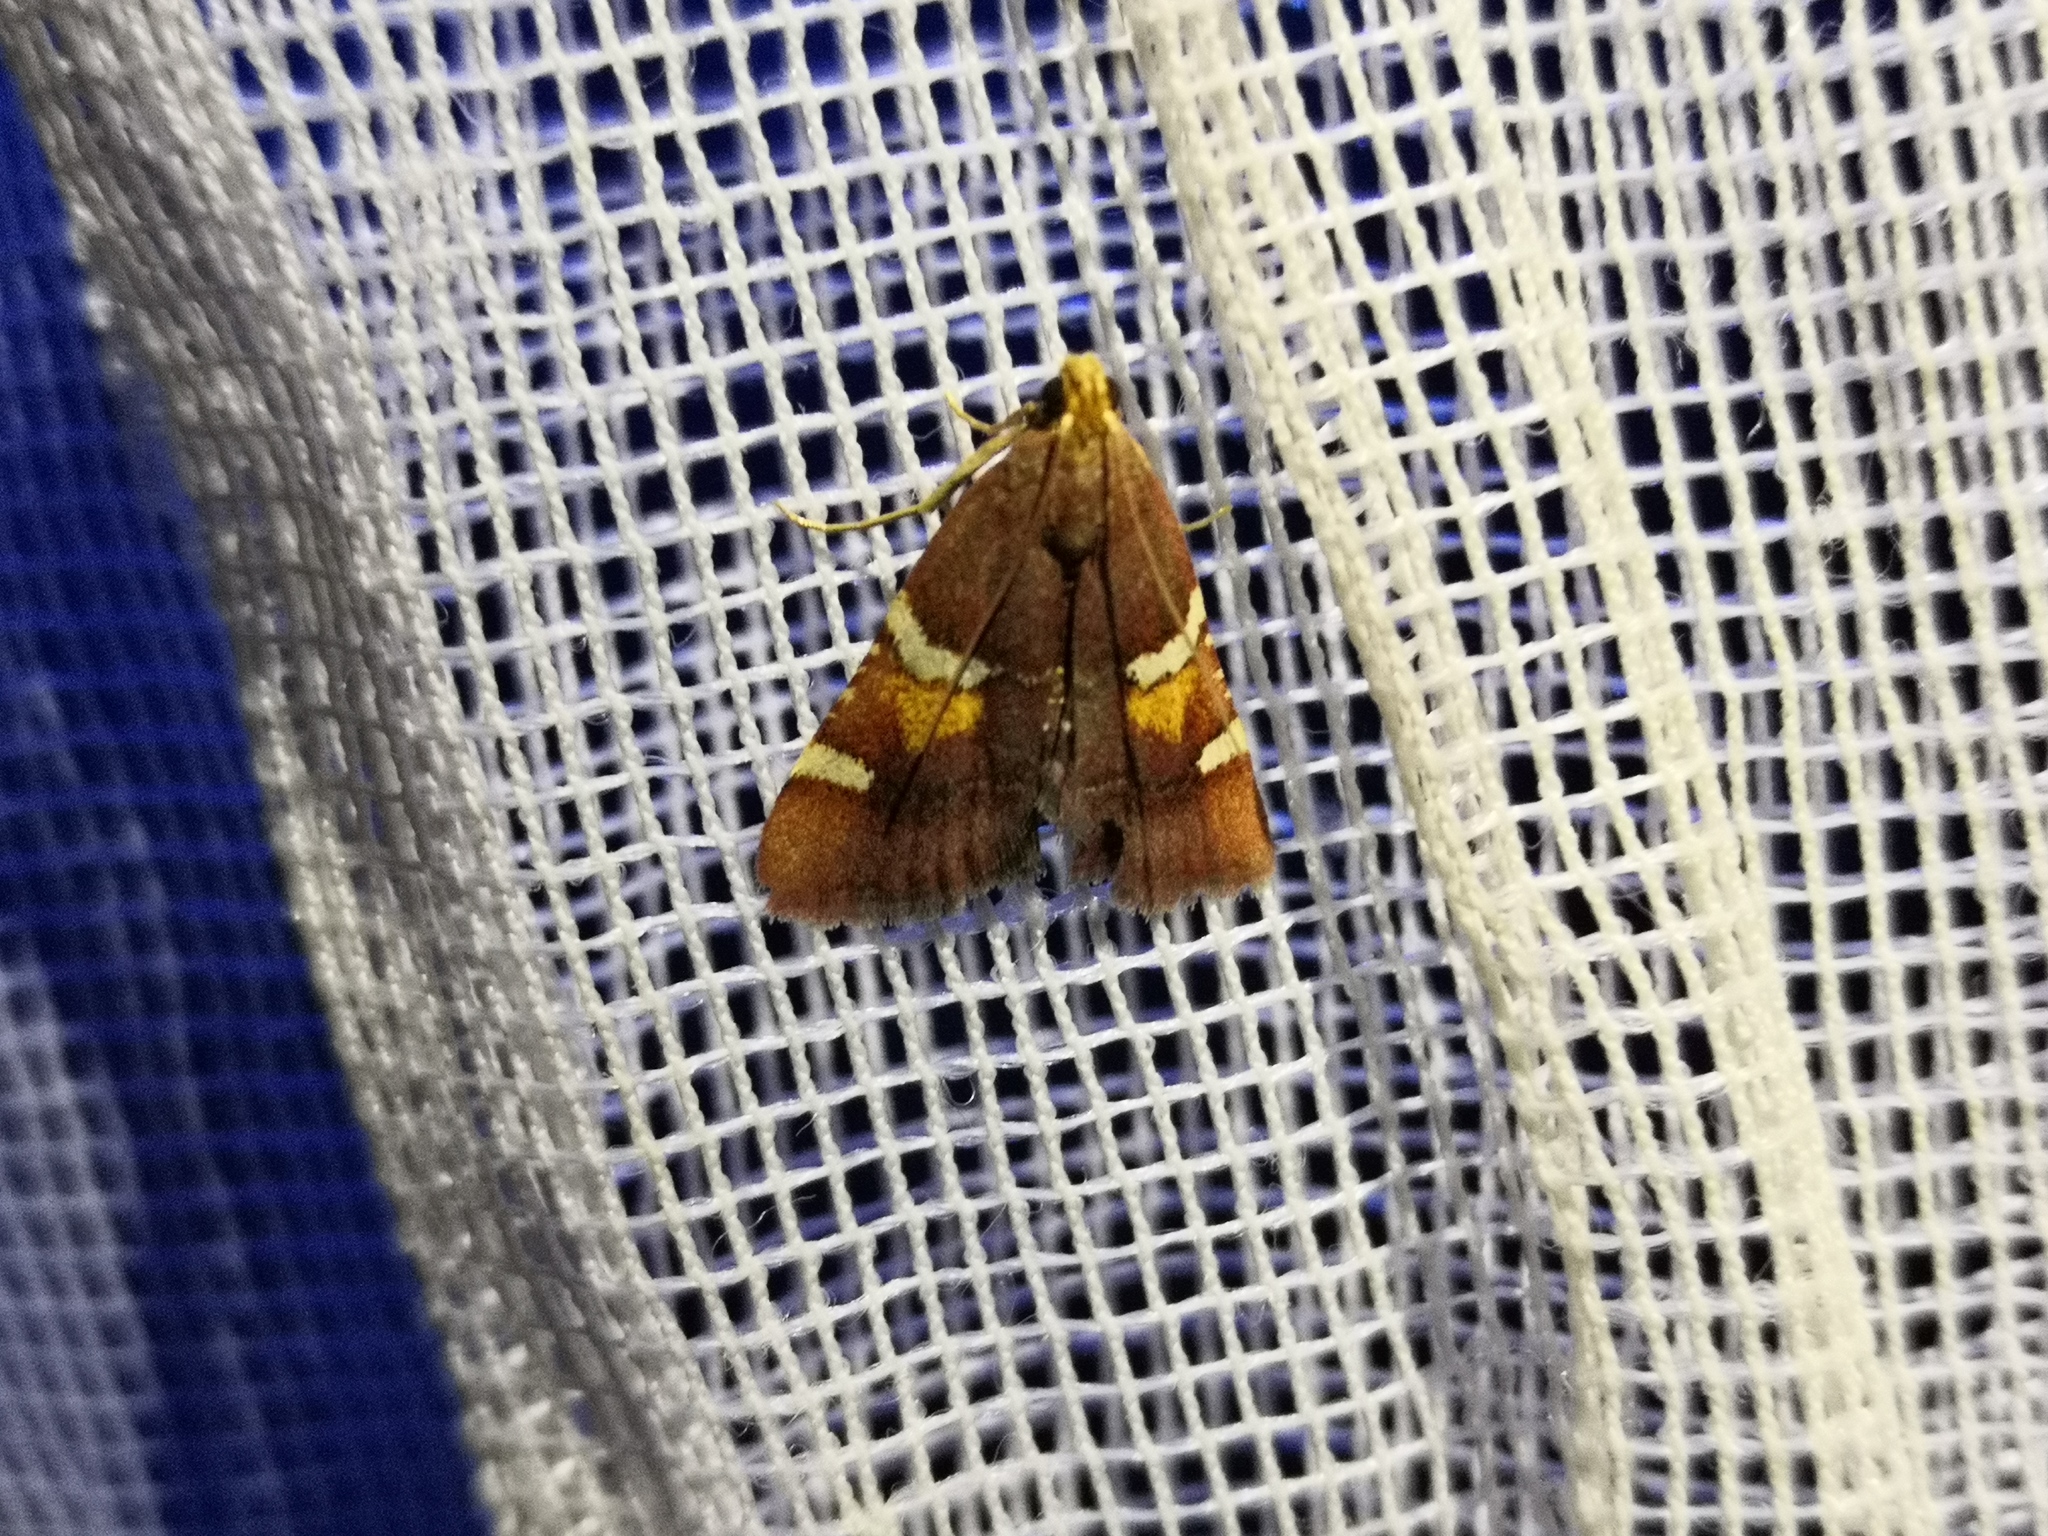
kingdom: Animalia
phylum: Arthropoda
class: Insecta
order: Lepidoptera
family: Pyralidae
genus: Pyralis
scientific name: Pyralis regalis
